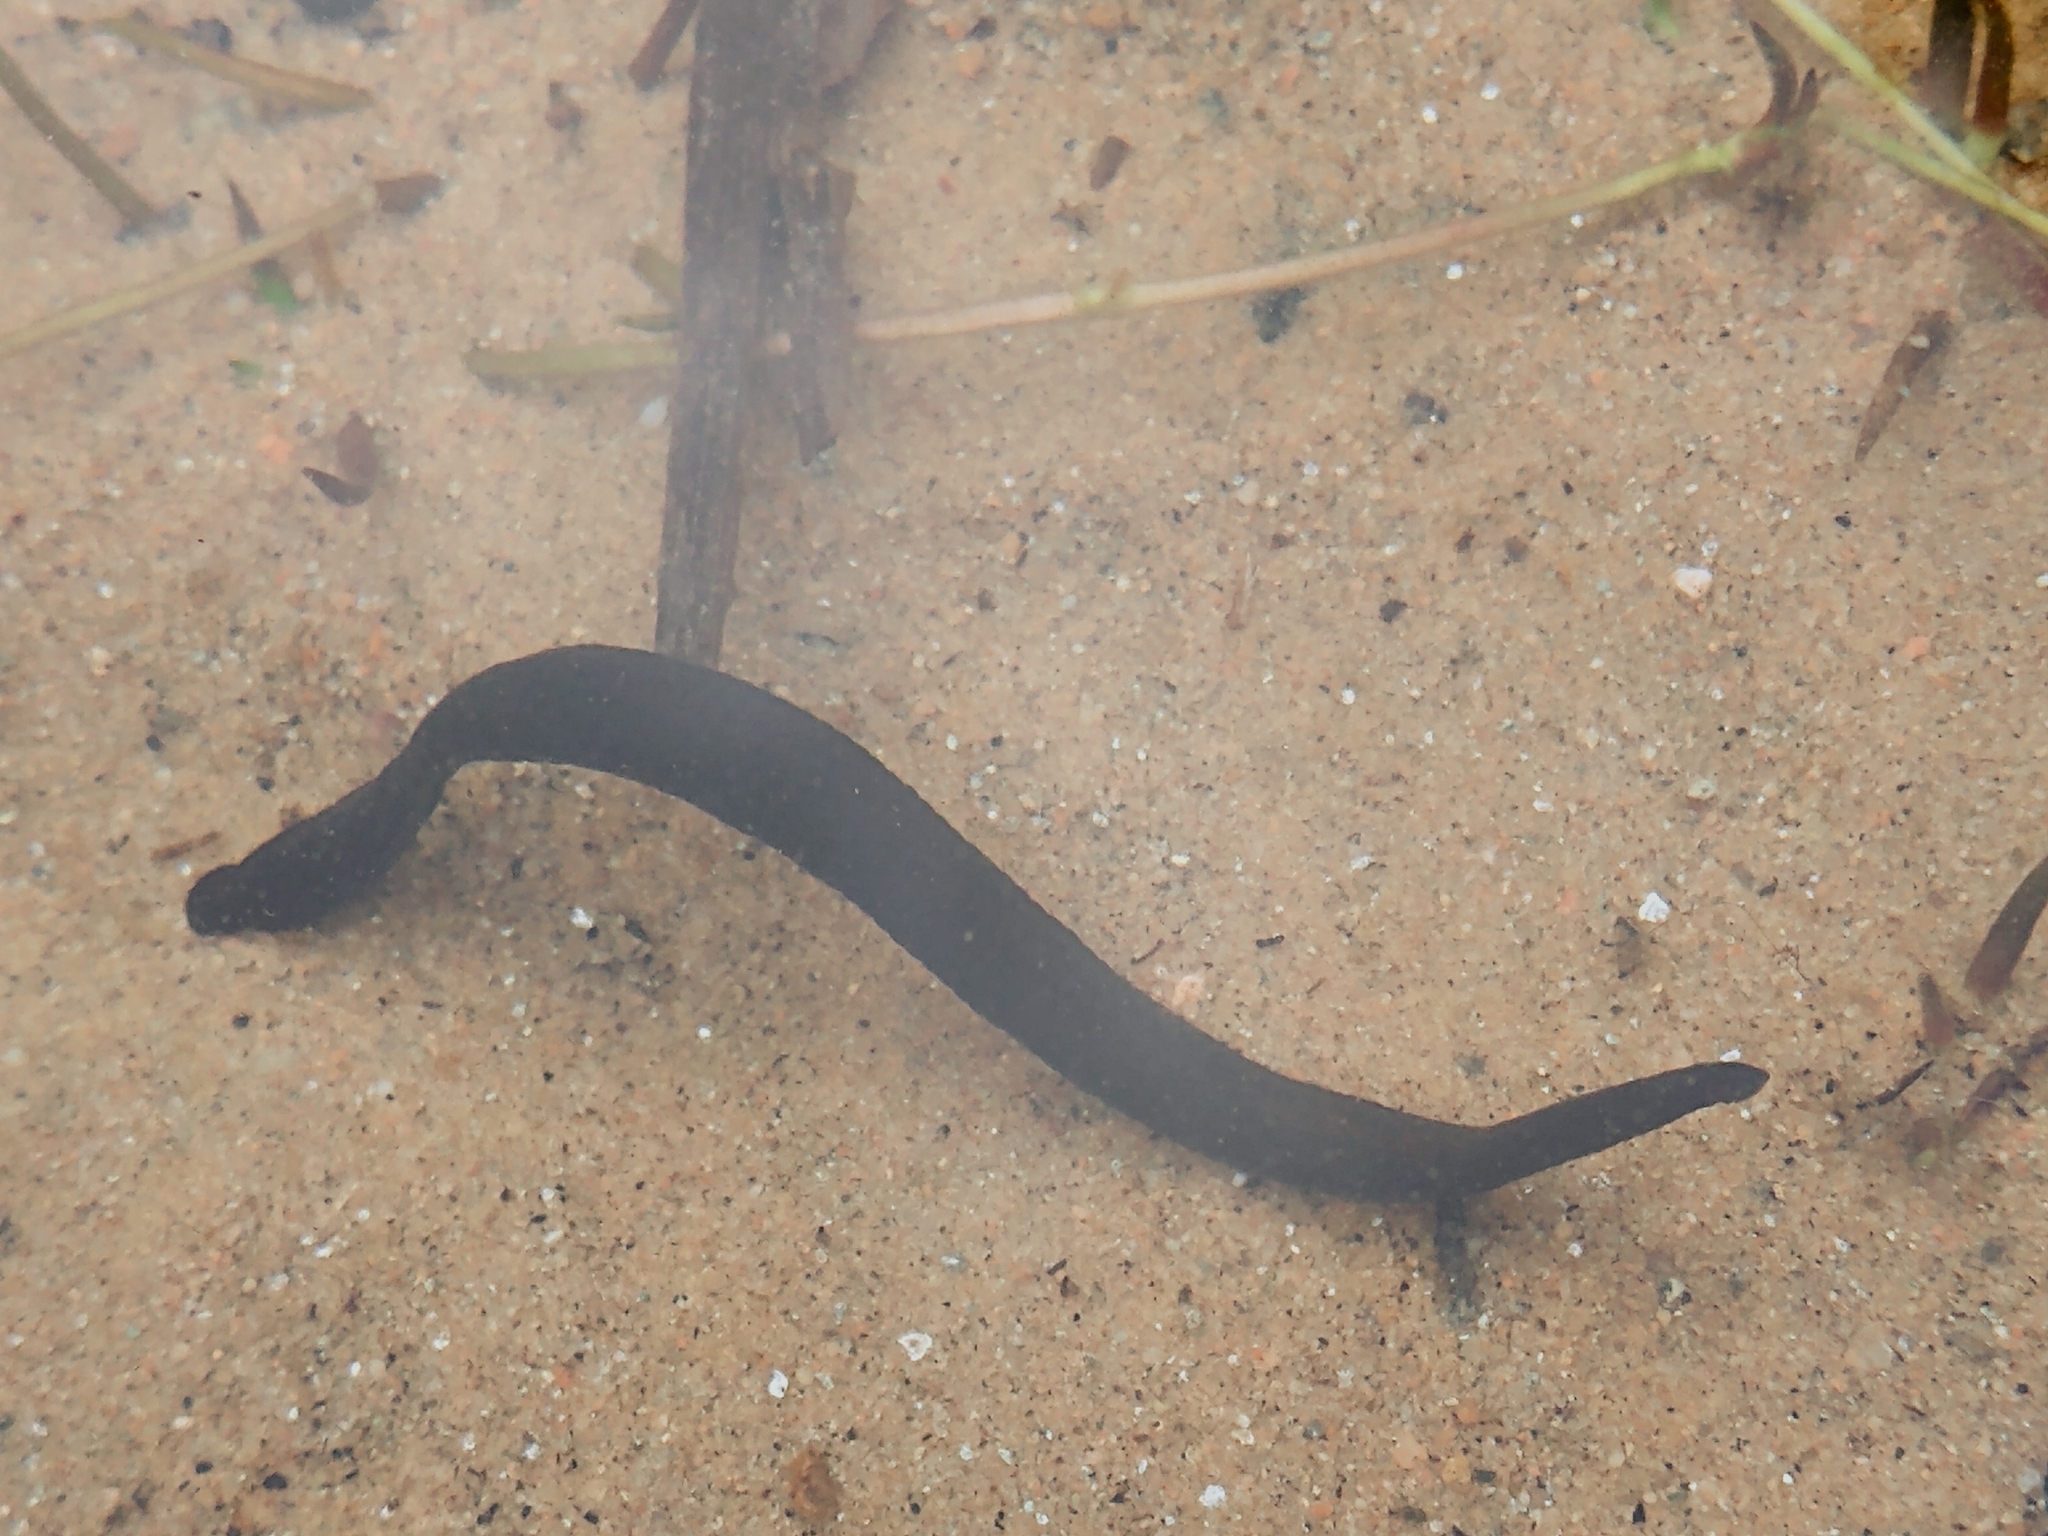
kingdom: Animalia
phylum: Annelida
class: Clitellata
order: Arhynchobdellida
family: Haemopidae
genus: Haemopis
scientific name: Haemopis sanguisuga
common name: Horse leech
